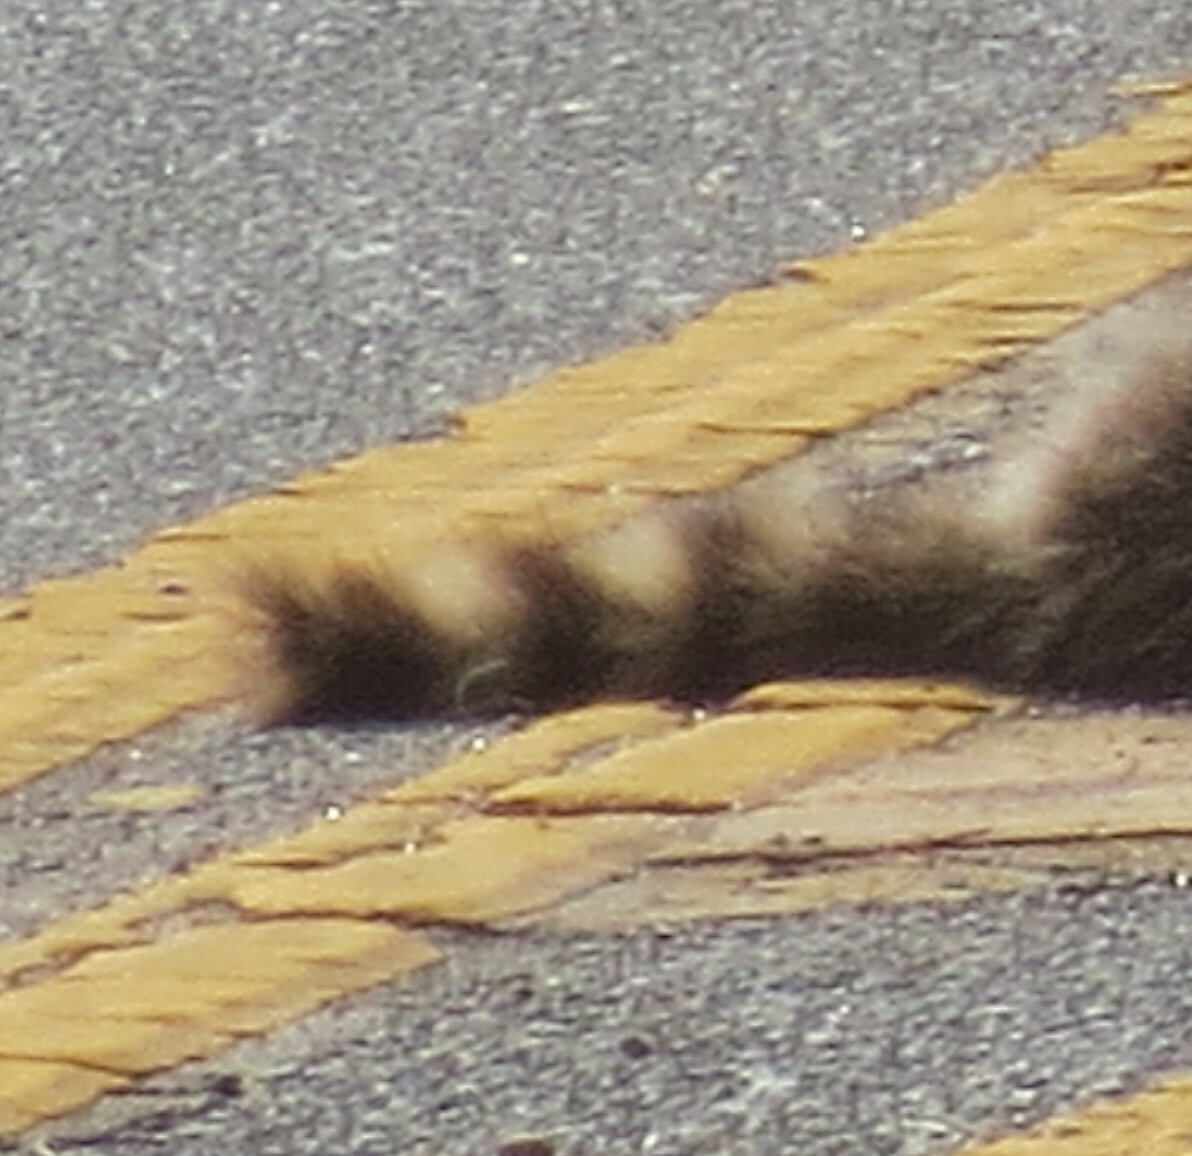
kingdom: Animalia
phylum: Chordata
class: Mammalia
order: Carnivora
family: Procyonidae
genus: Procyon
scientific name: Procyon lotor
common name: Raccoon
